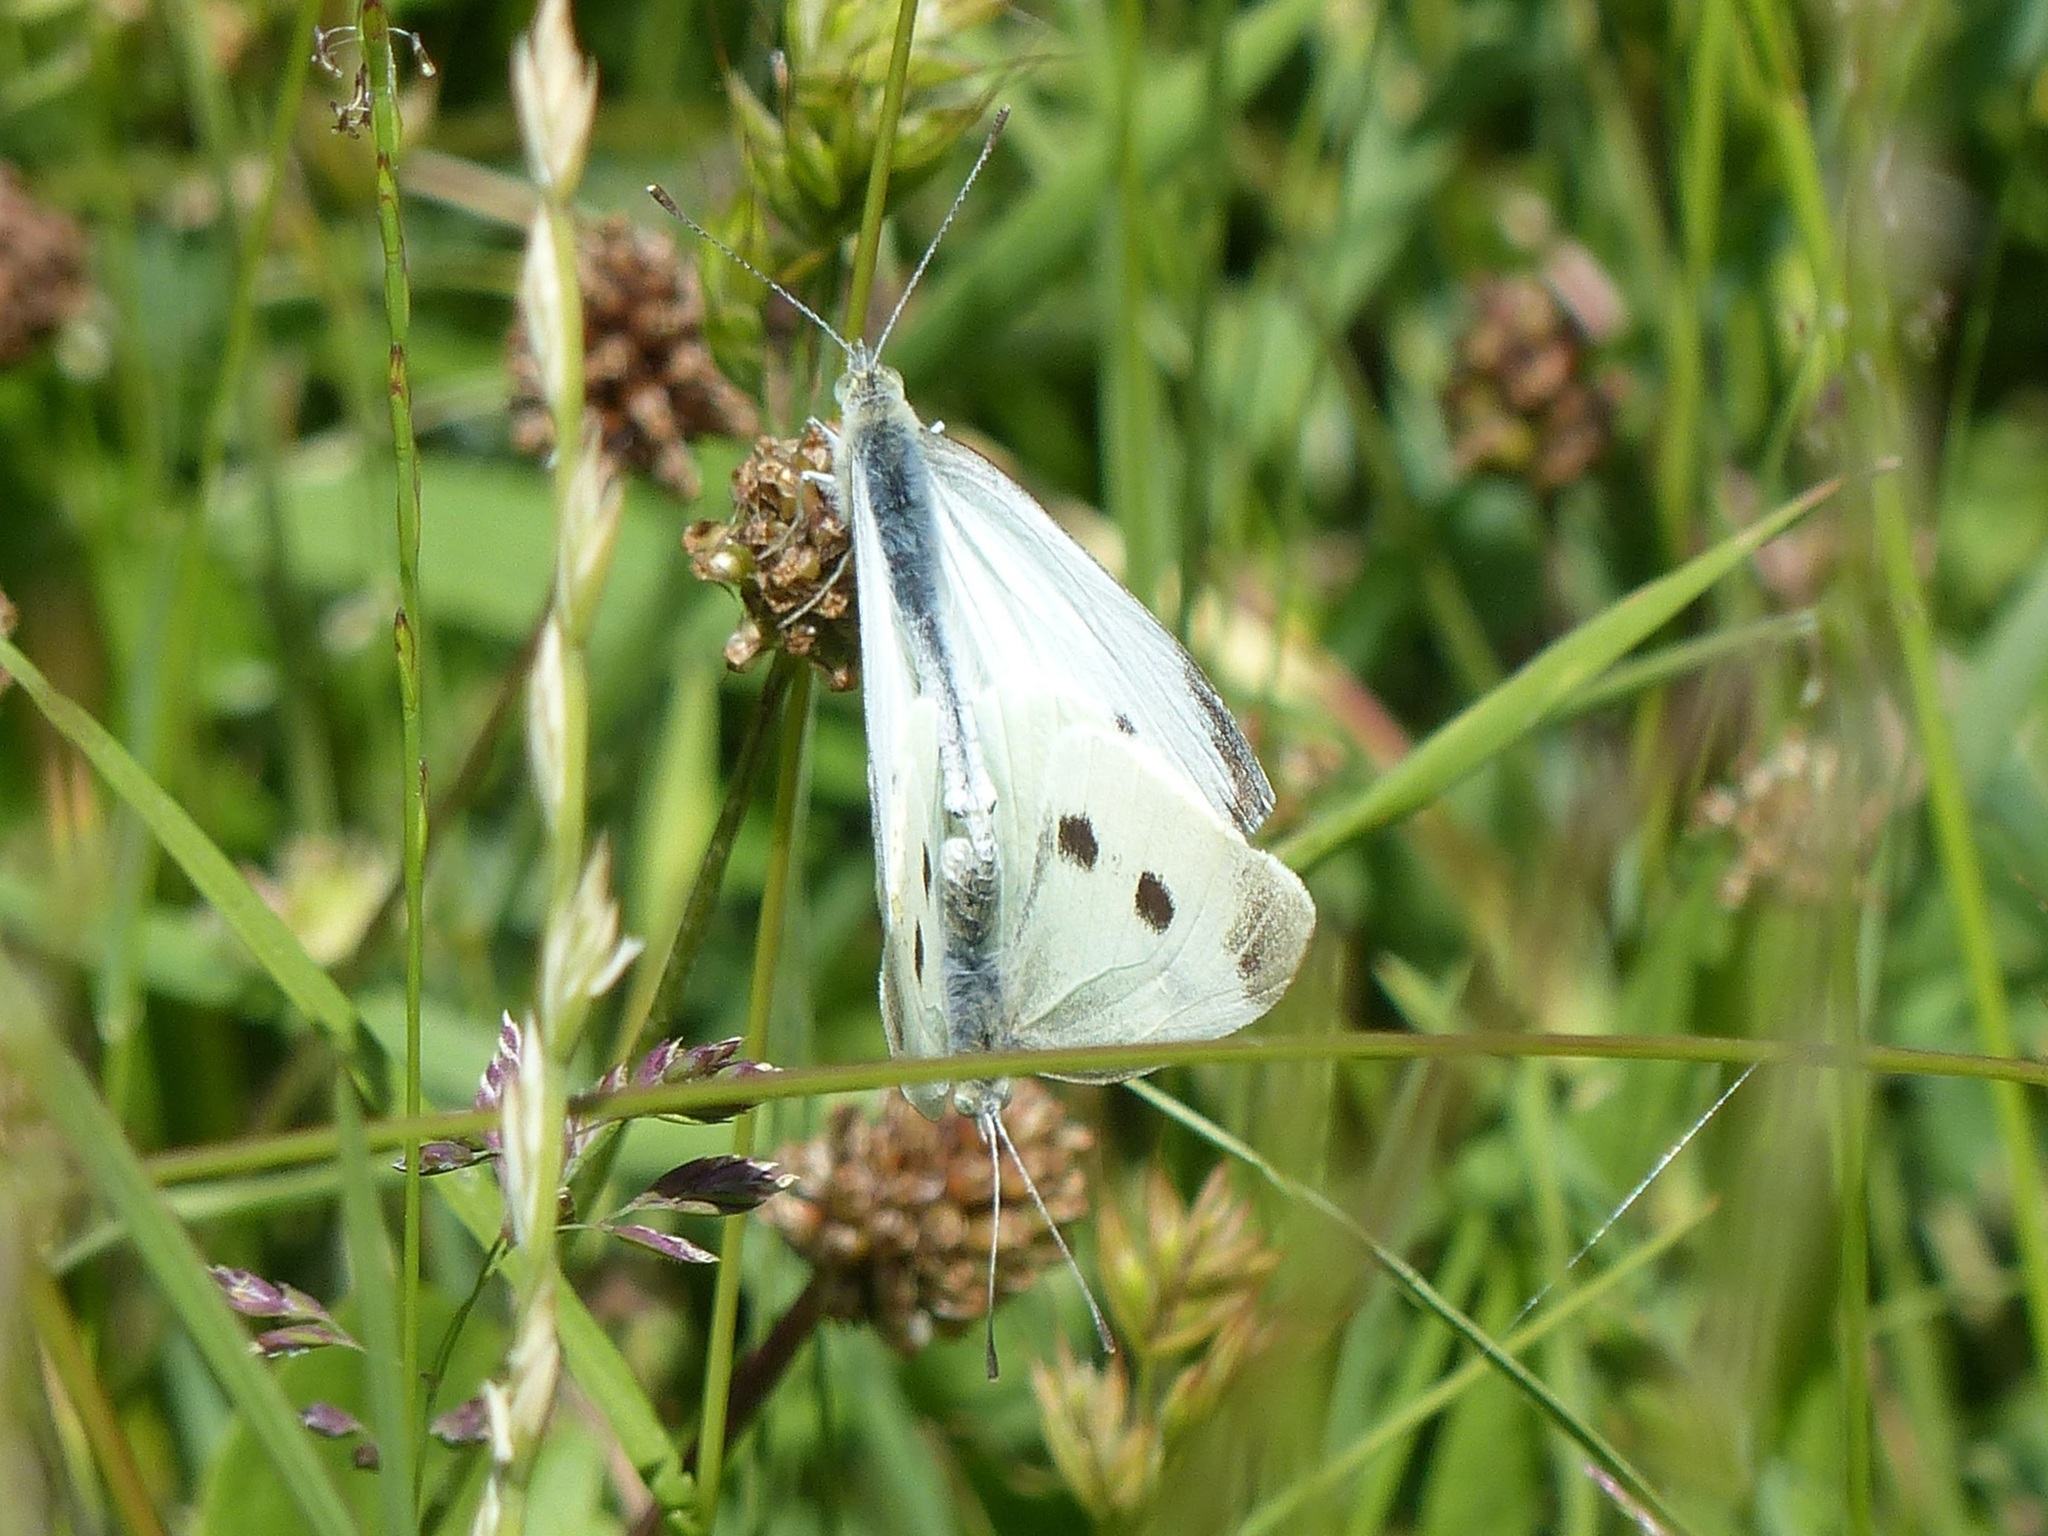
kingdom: Animalia
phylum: Arthropoda
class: Insecta
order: Lepidoptera
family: Pieridae
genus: Pieris
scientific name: Pieris rapae
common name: Small white
